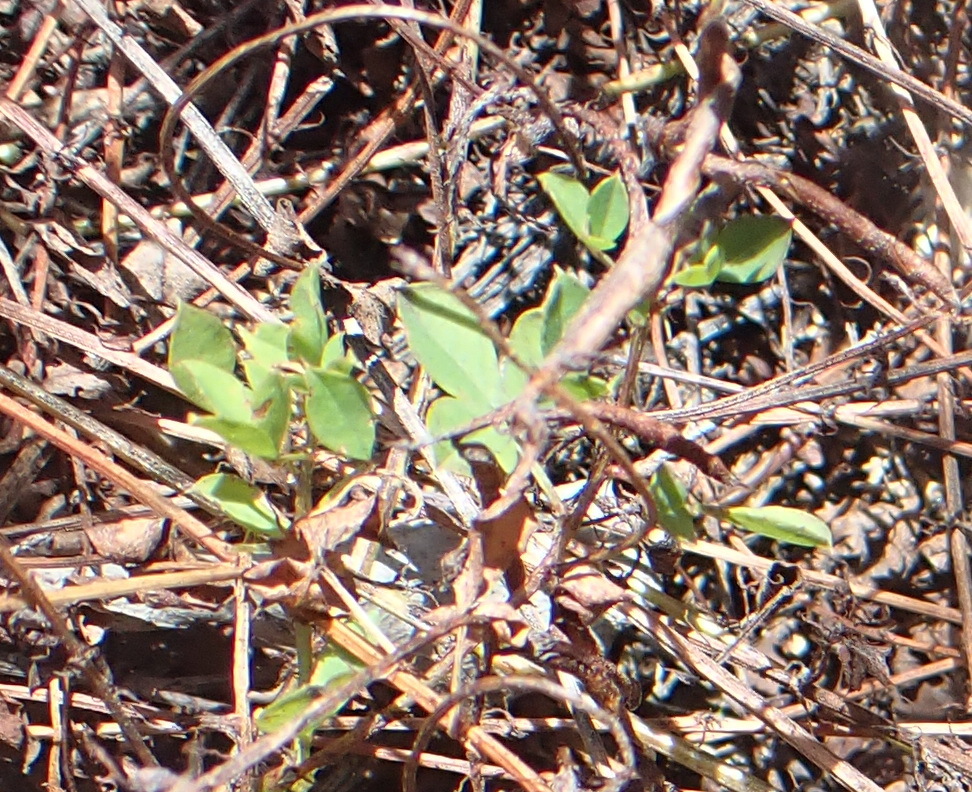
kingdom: Plantae
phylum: Tracheophyta
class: Magnoliopsida
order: Fabales
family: Fabaceae
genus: Indigofera
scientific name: Indigofera erecta
